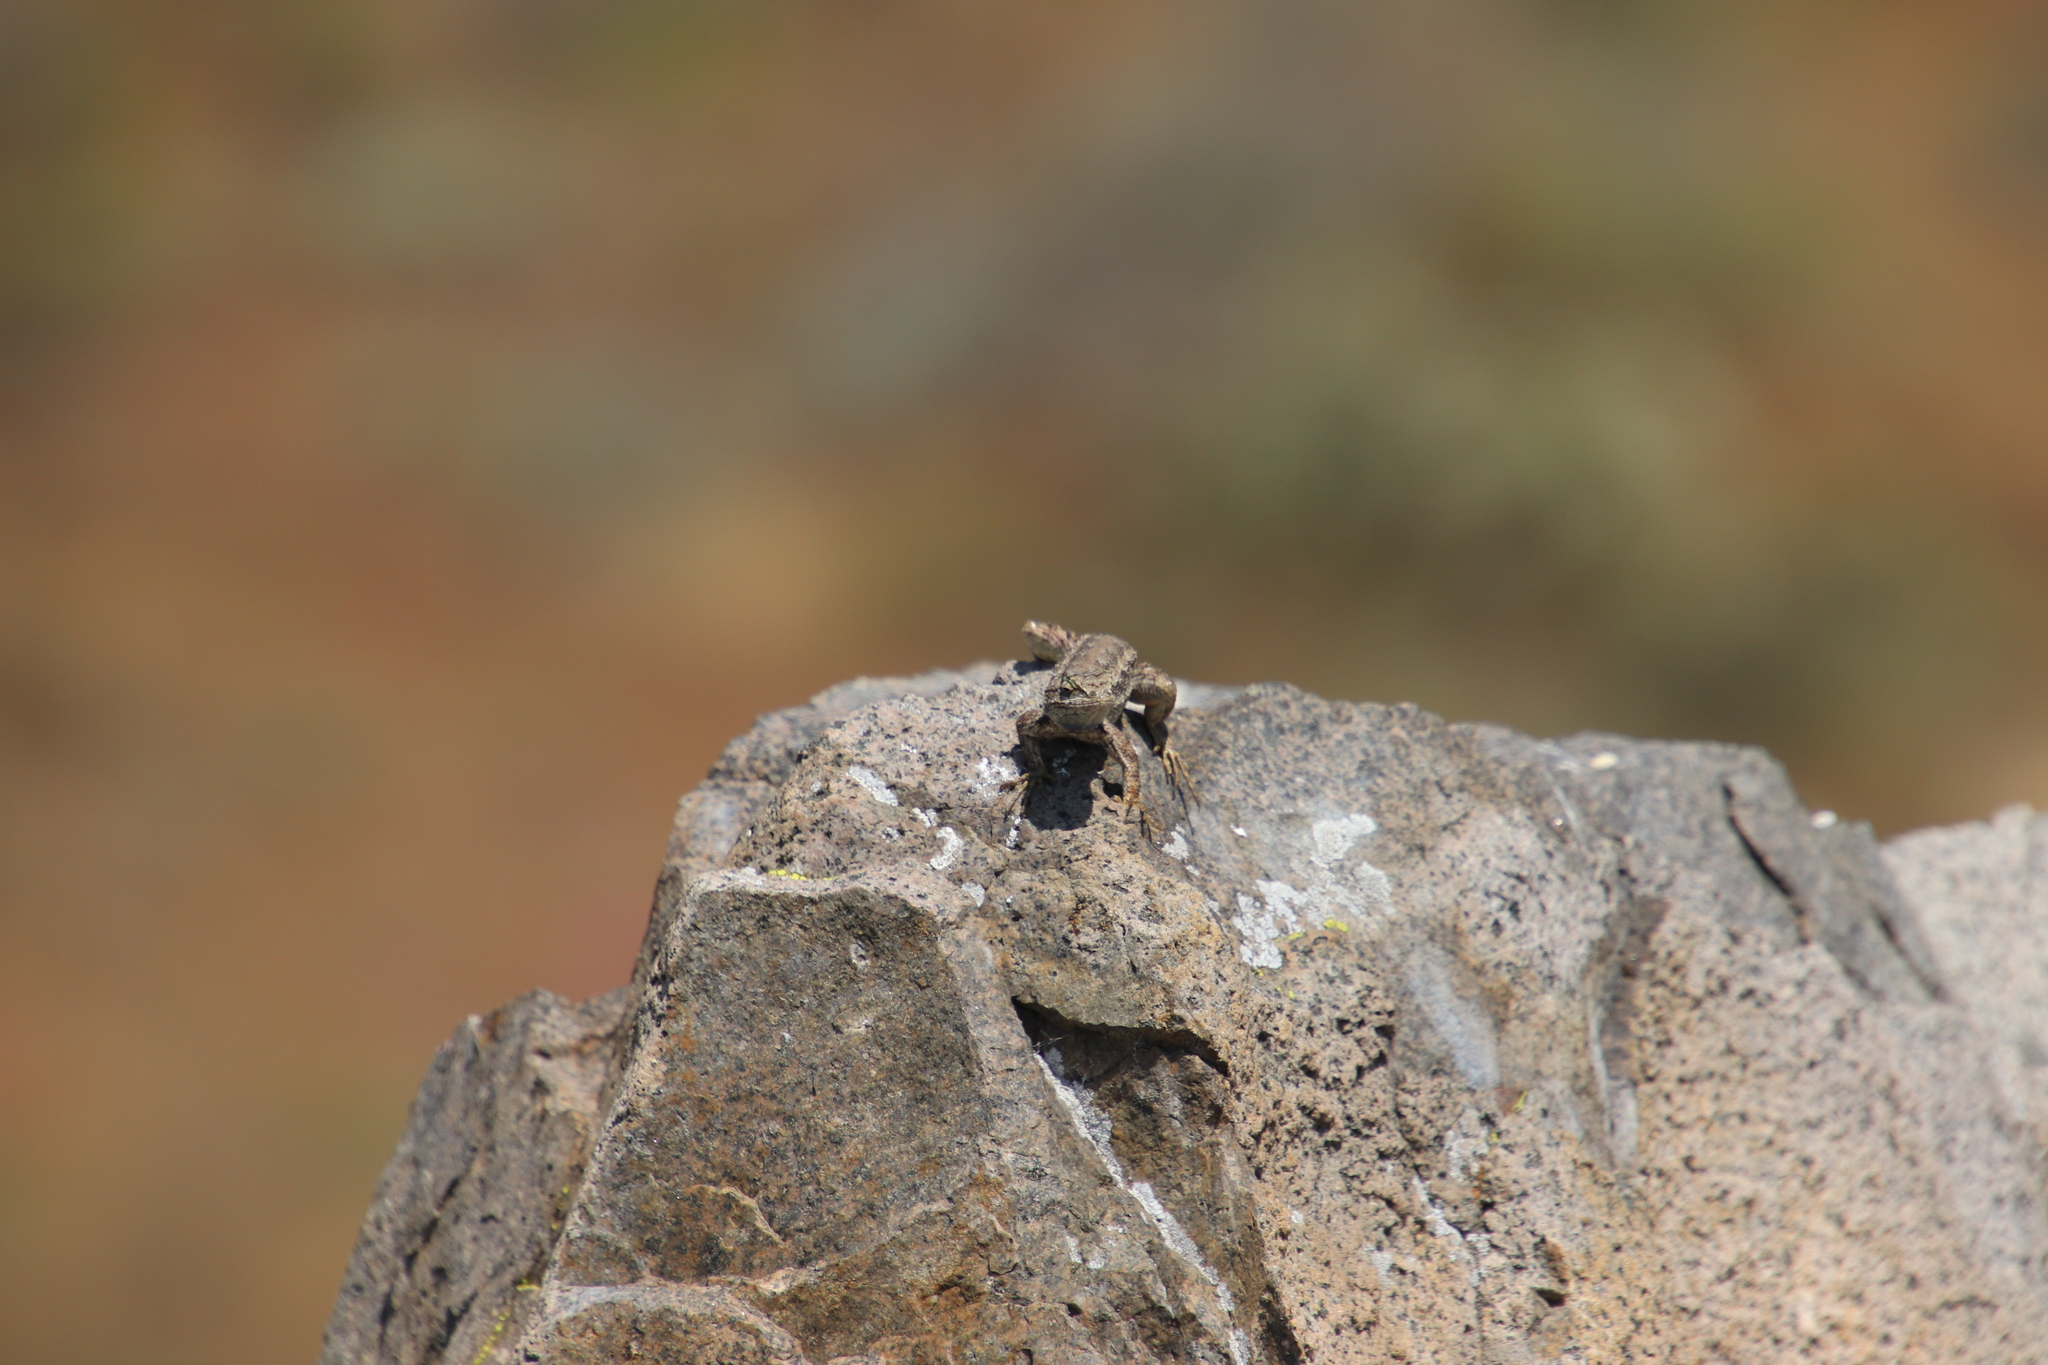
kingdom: Animalia
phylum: Chordata
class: Squamata
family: Phrynosomatidae
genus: Sceloporus
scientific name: Sceloporus occidentalis
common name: Western fence lizard
